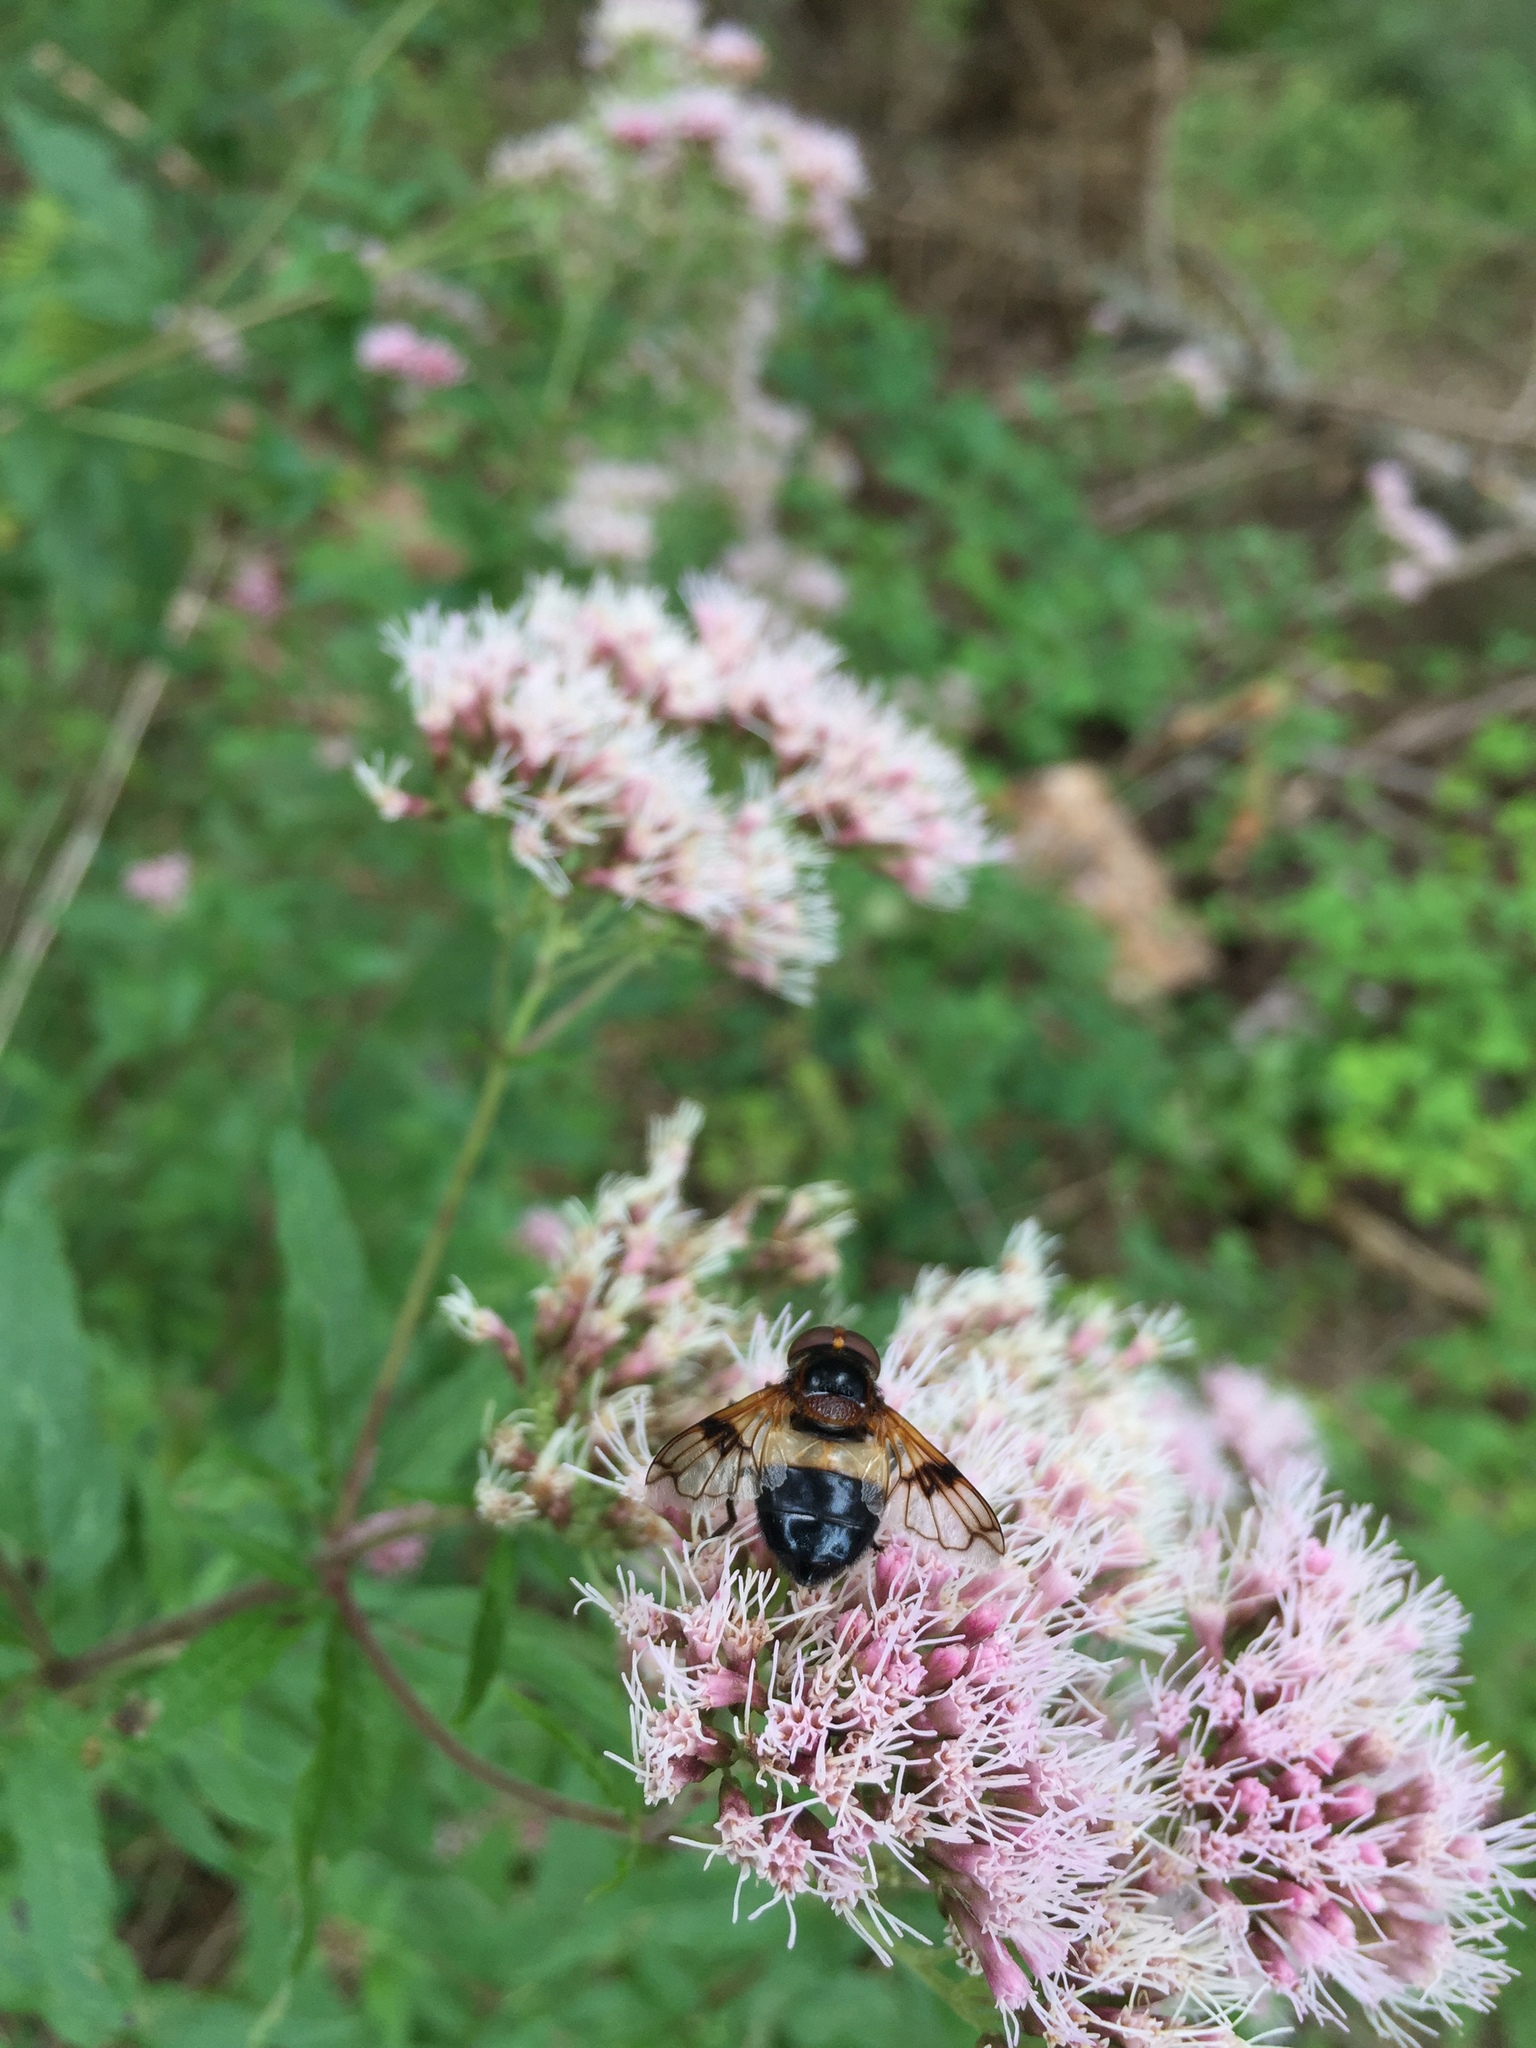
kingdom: Animalia
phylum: Arthropoda
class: Insecta
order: Diptera
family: Syrphidae
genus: Volucella
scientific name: Volucella pellucens
